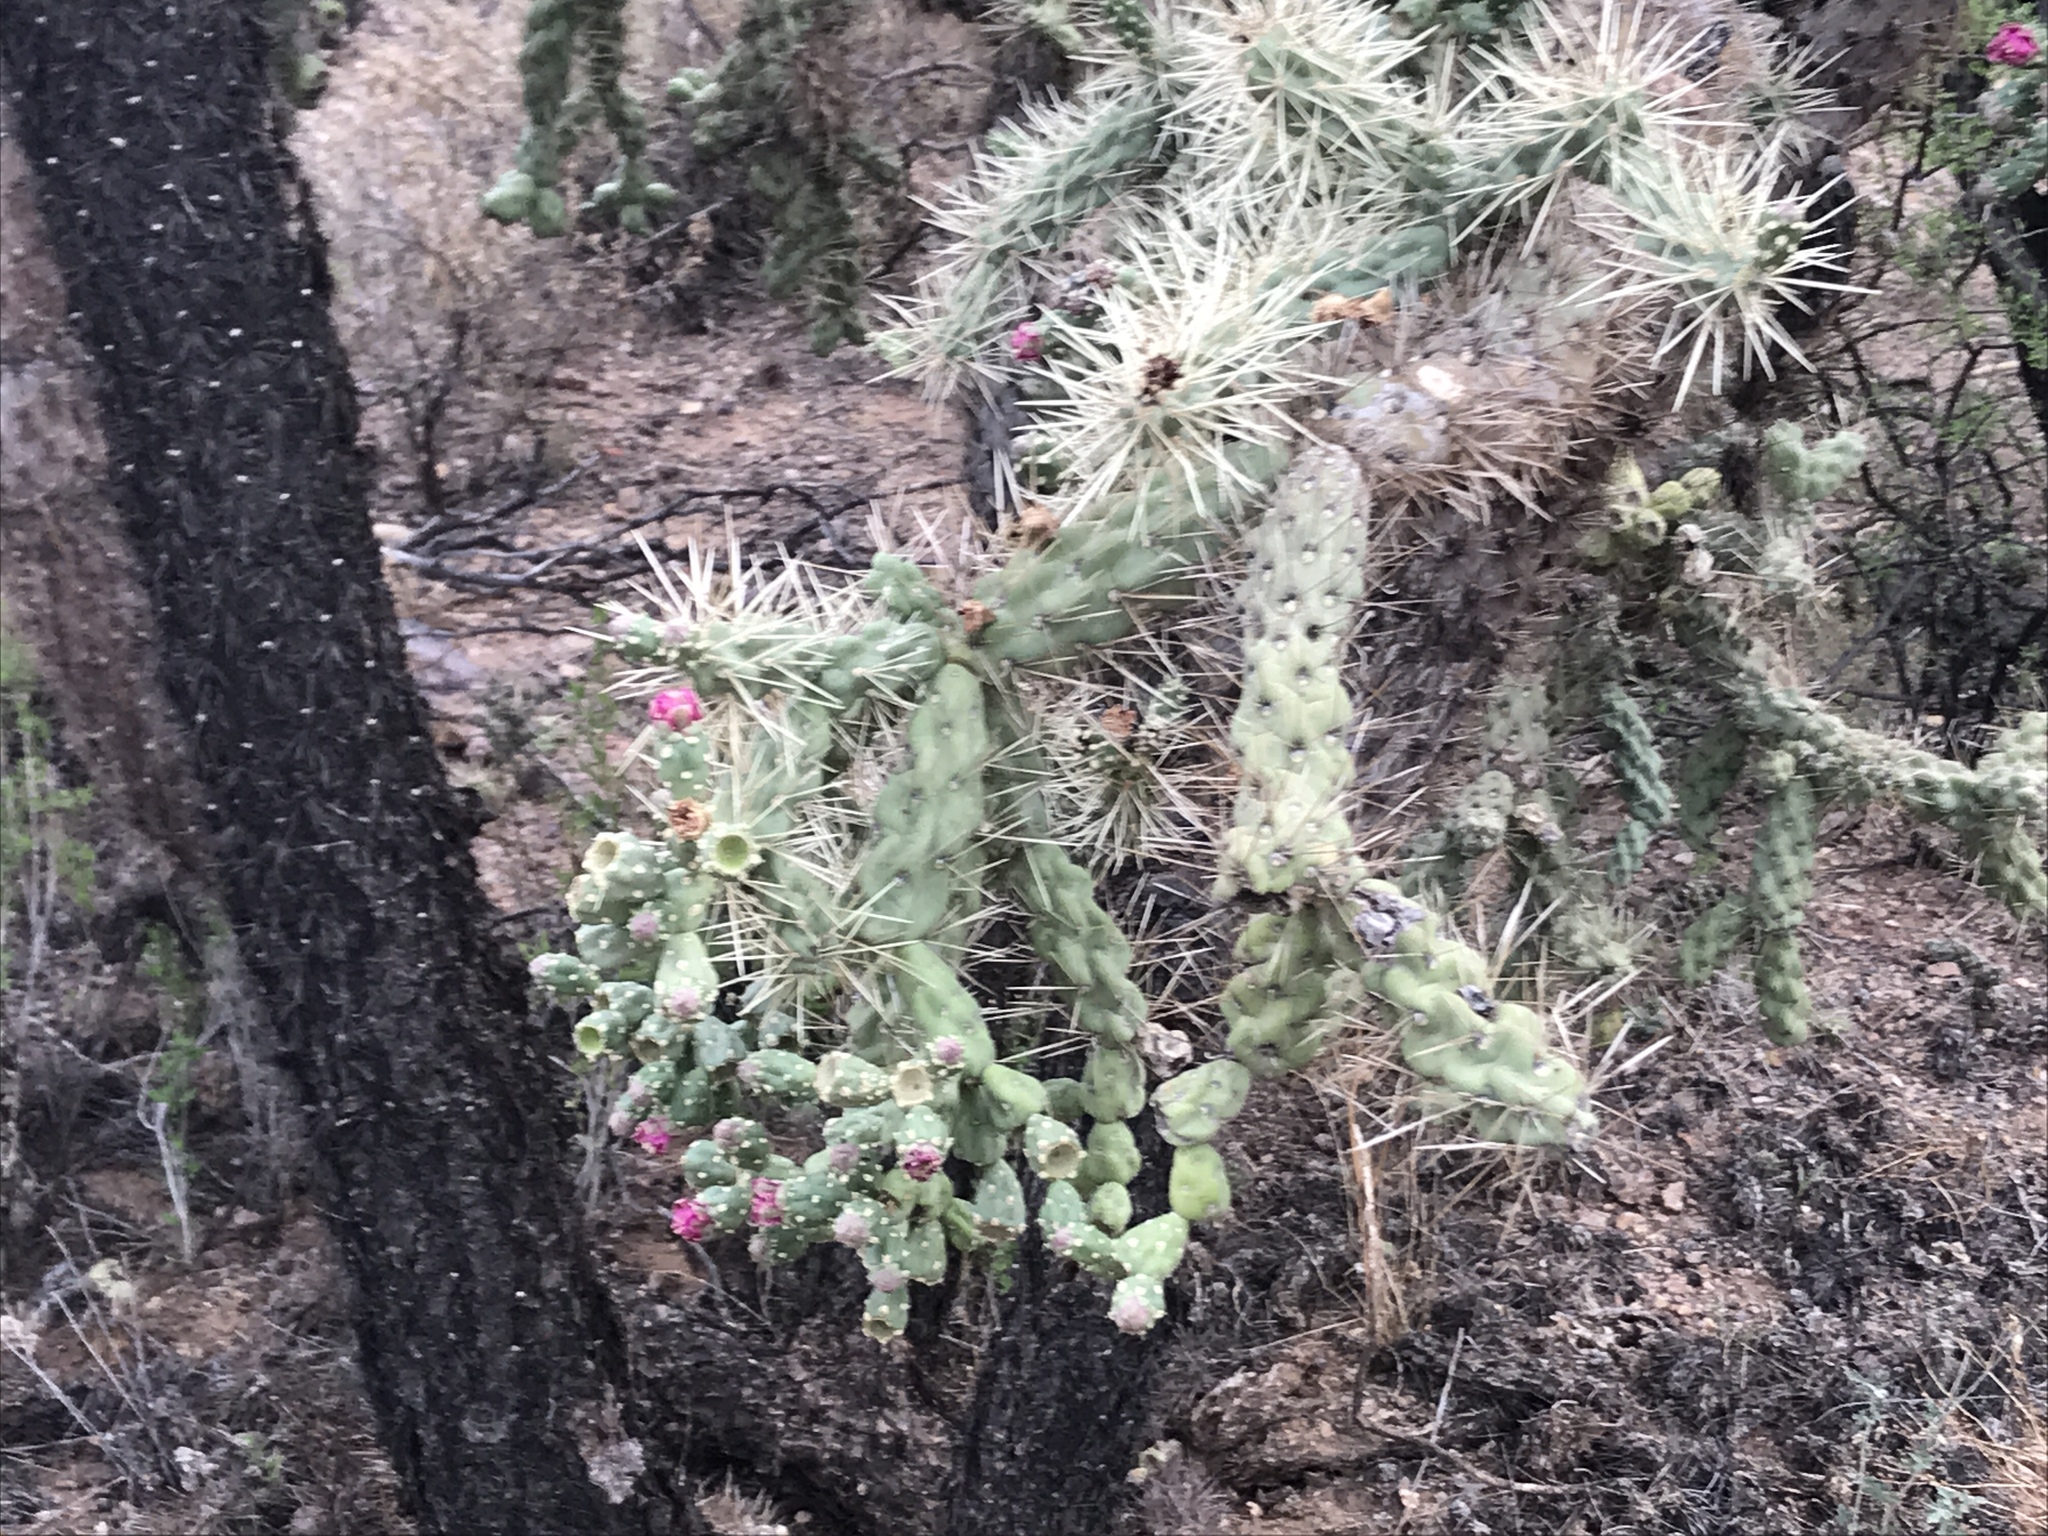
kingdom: Plantae
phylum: Tracheophyta
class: Magnoliopsida
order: Caryophyllales
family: Cactaceae
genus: Cylindropuntia
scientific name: Cylindropuntia fulgida
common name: Jumping cholla
